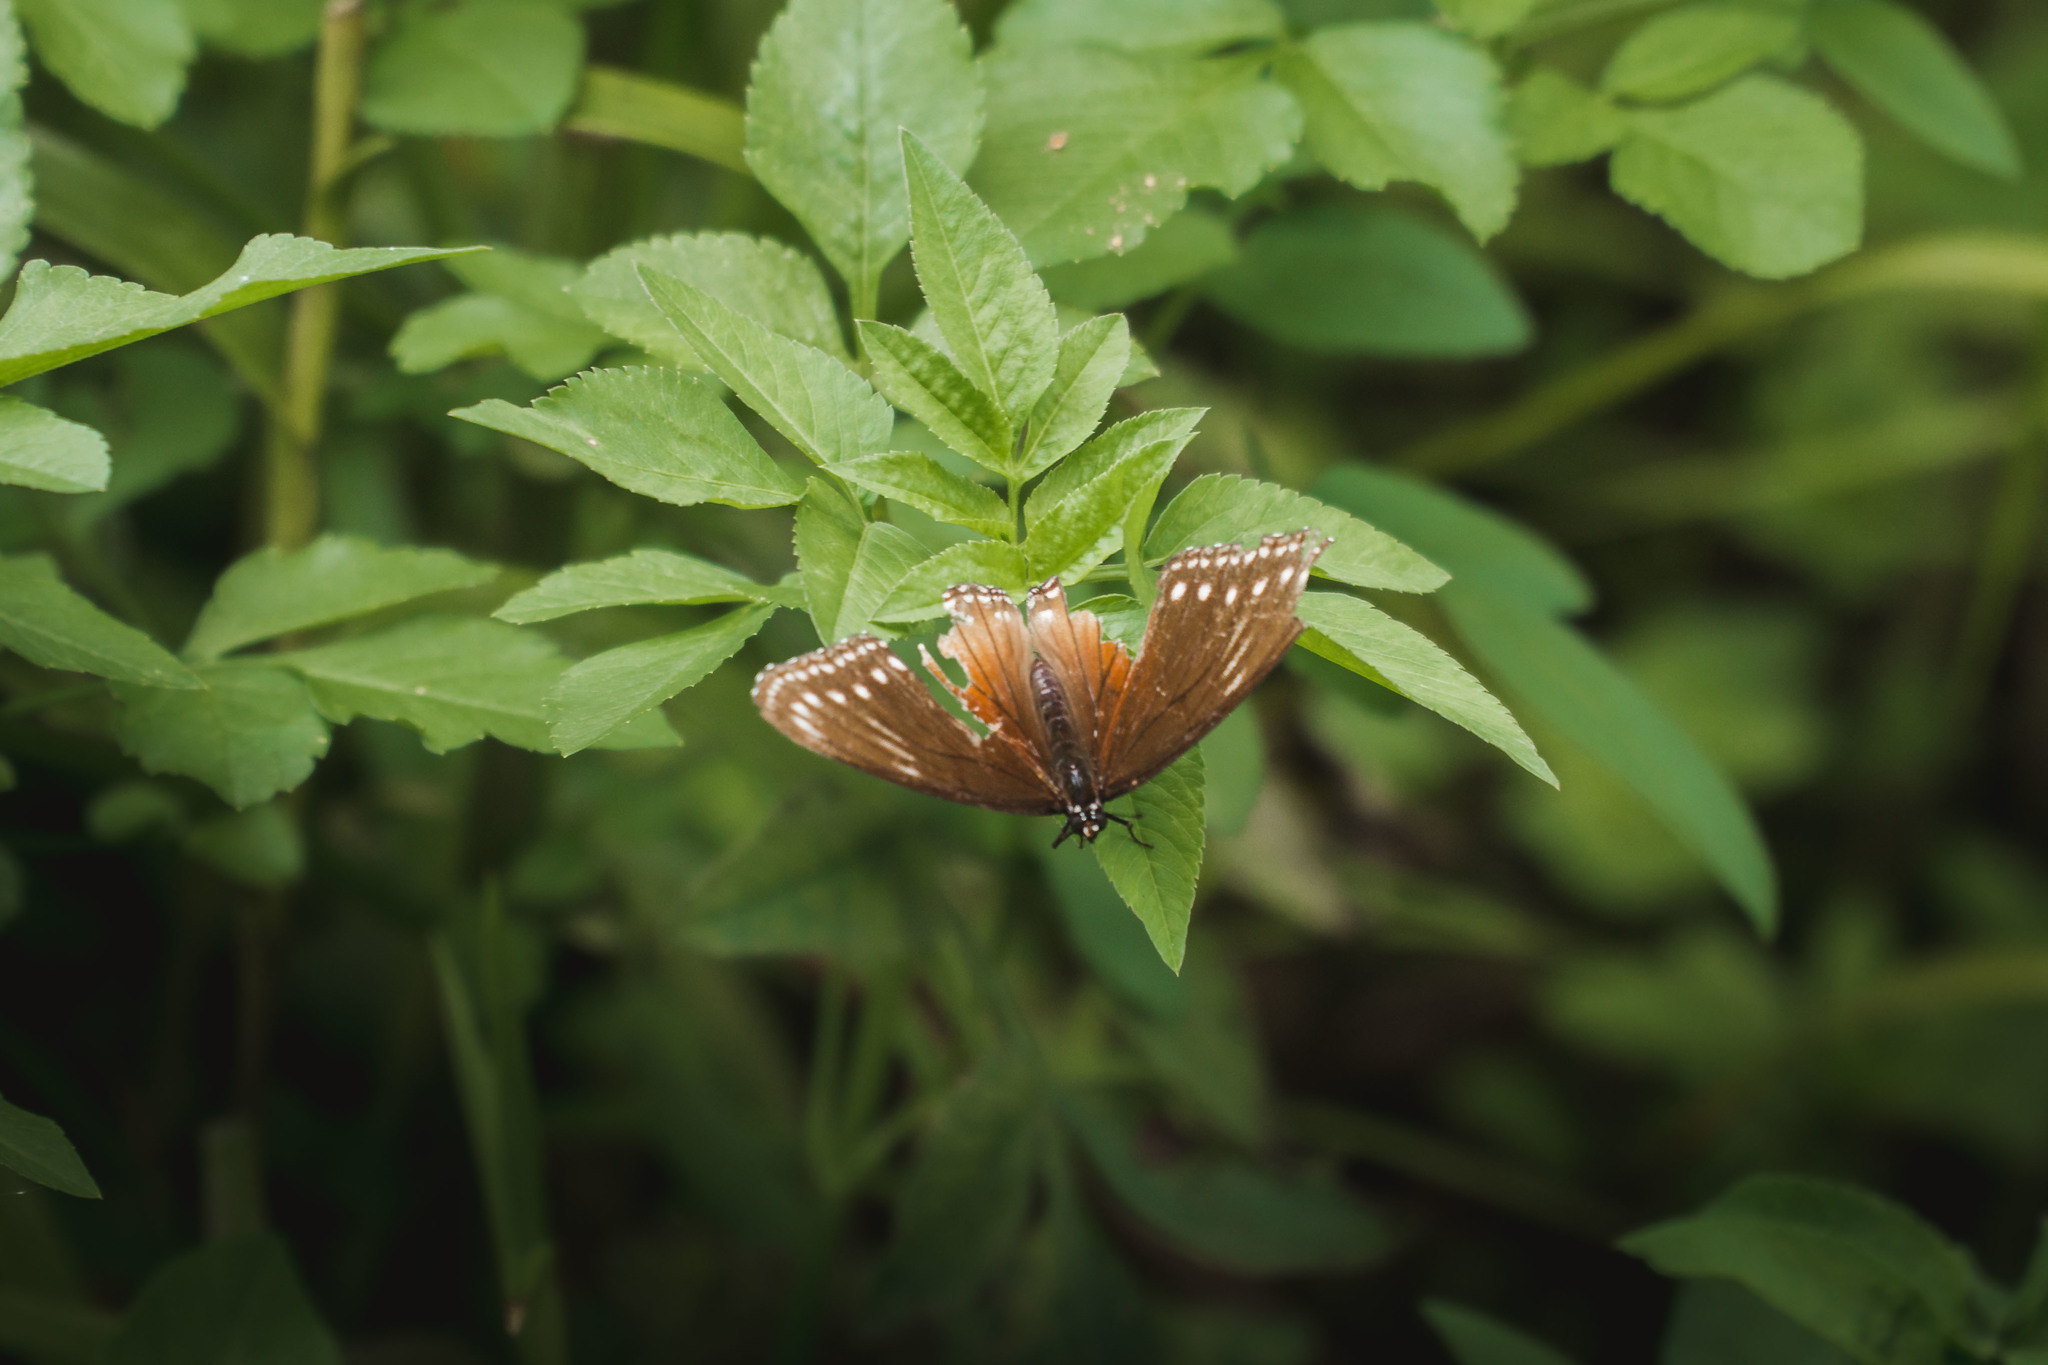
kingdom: Animalia
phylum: Arthropoda
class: Insecta
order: Lepidoptera
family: Nymphalidae
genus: Hypolimnas
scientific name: Hypolimnas anomala
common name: Malayan eggfly
